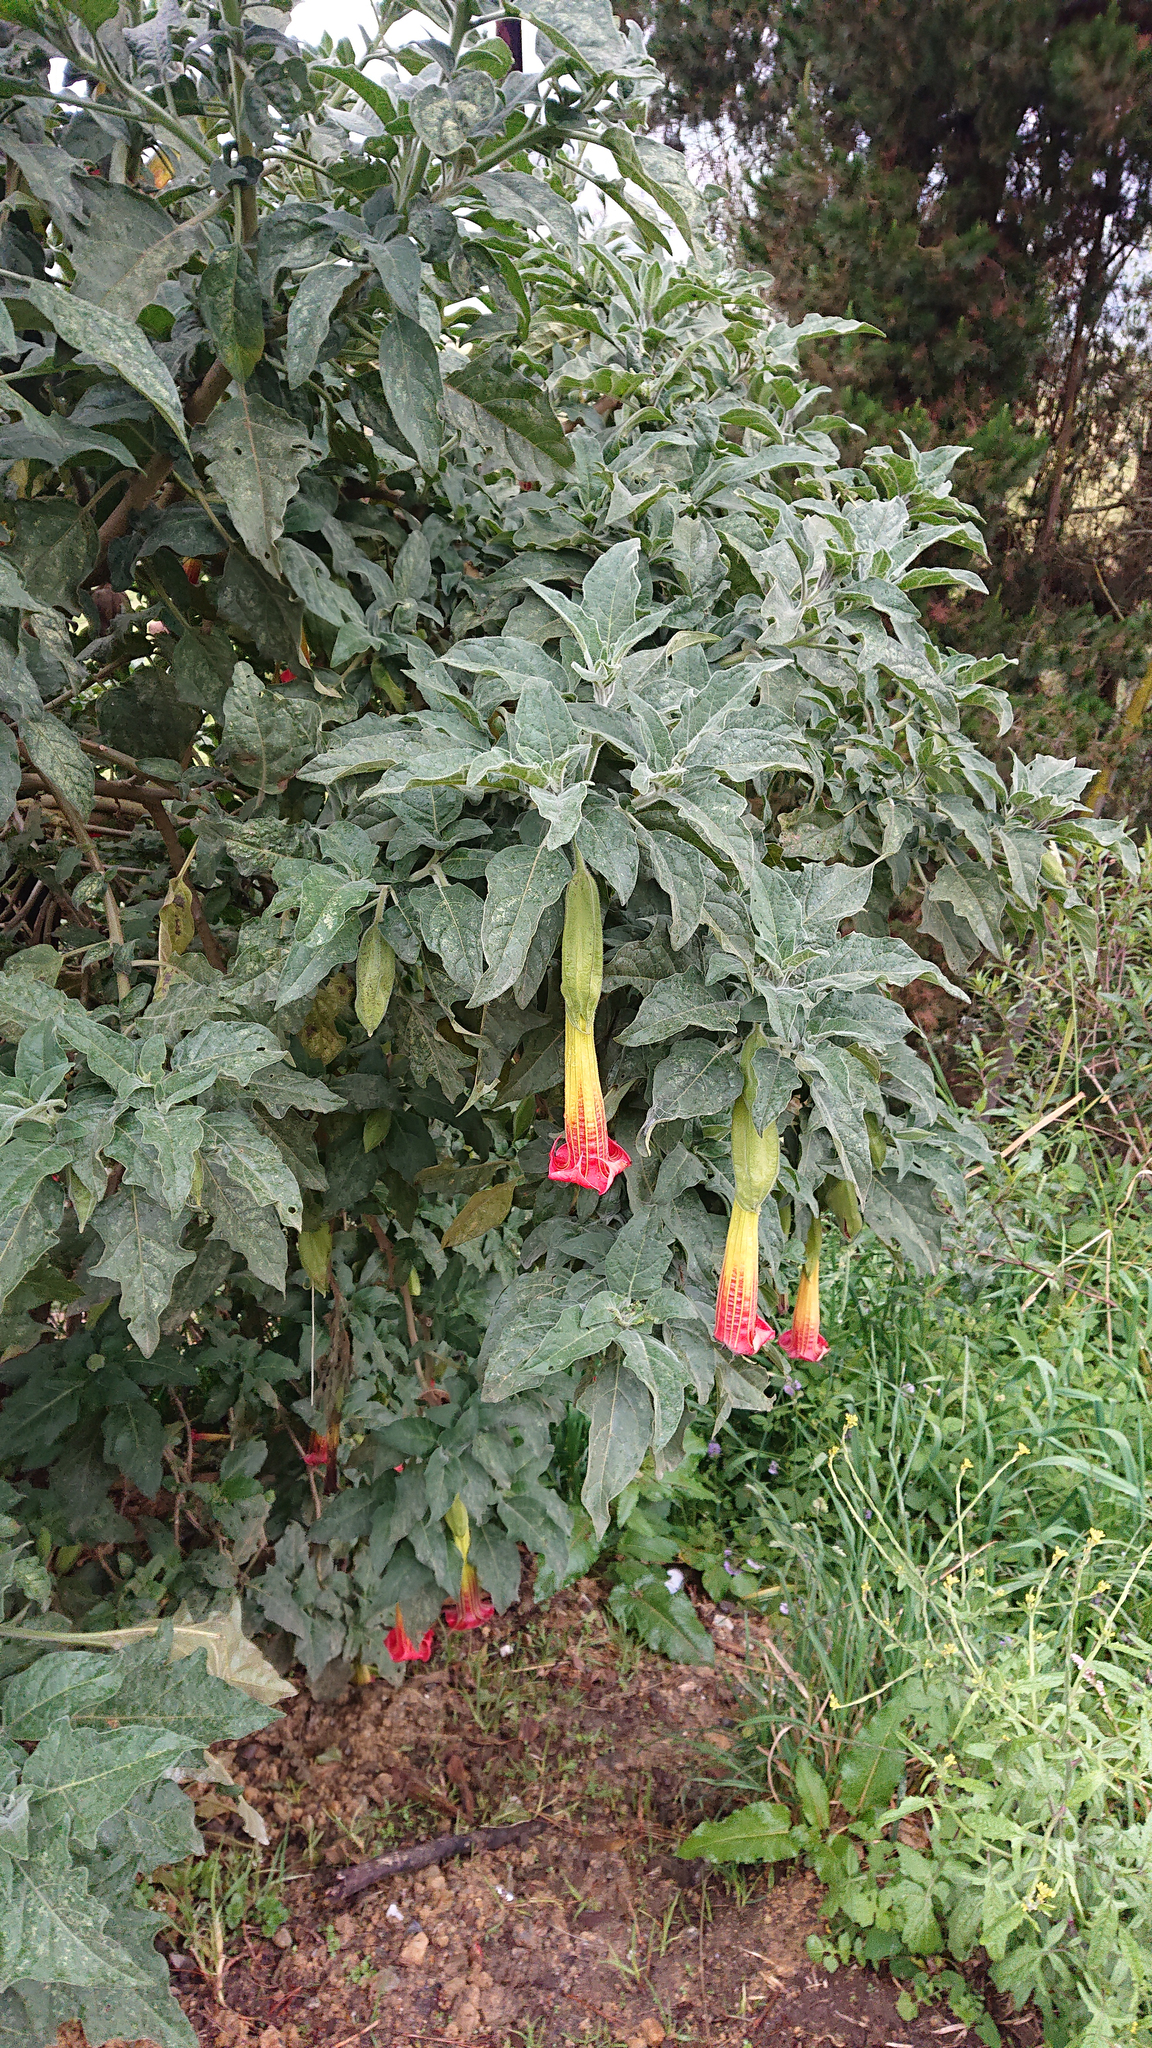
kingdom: Plantae
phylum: Tracheophyta
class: Magnoliopsida
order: Solanales
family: Solanaceae
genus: Brugmansia
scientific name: Brugmansia sanguinea
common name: Red floripontio
